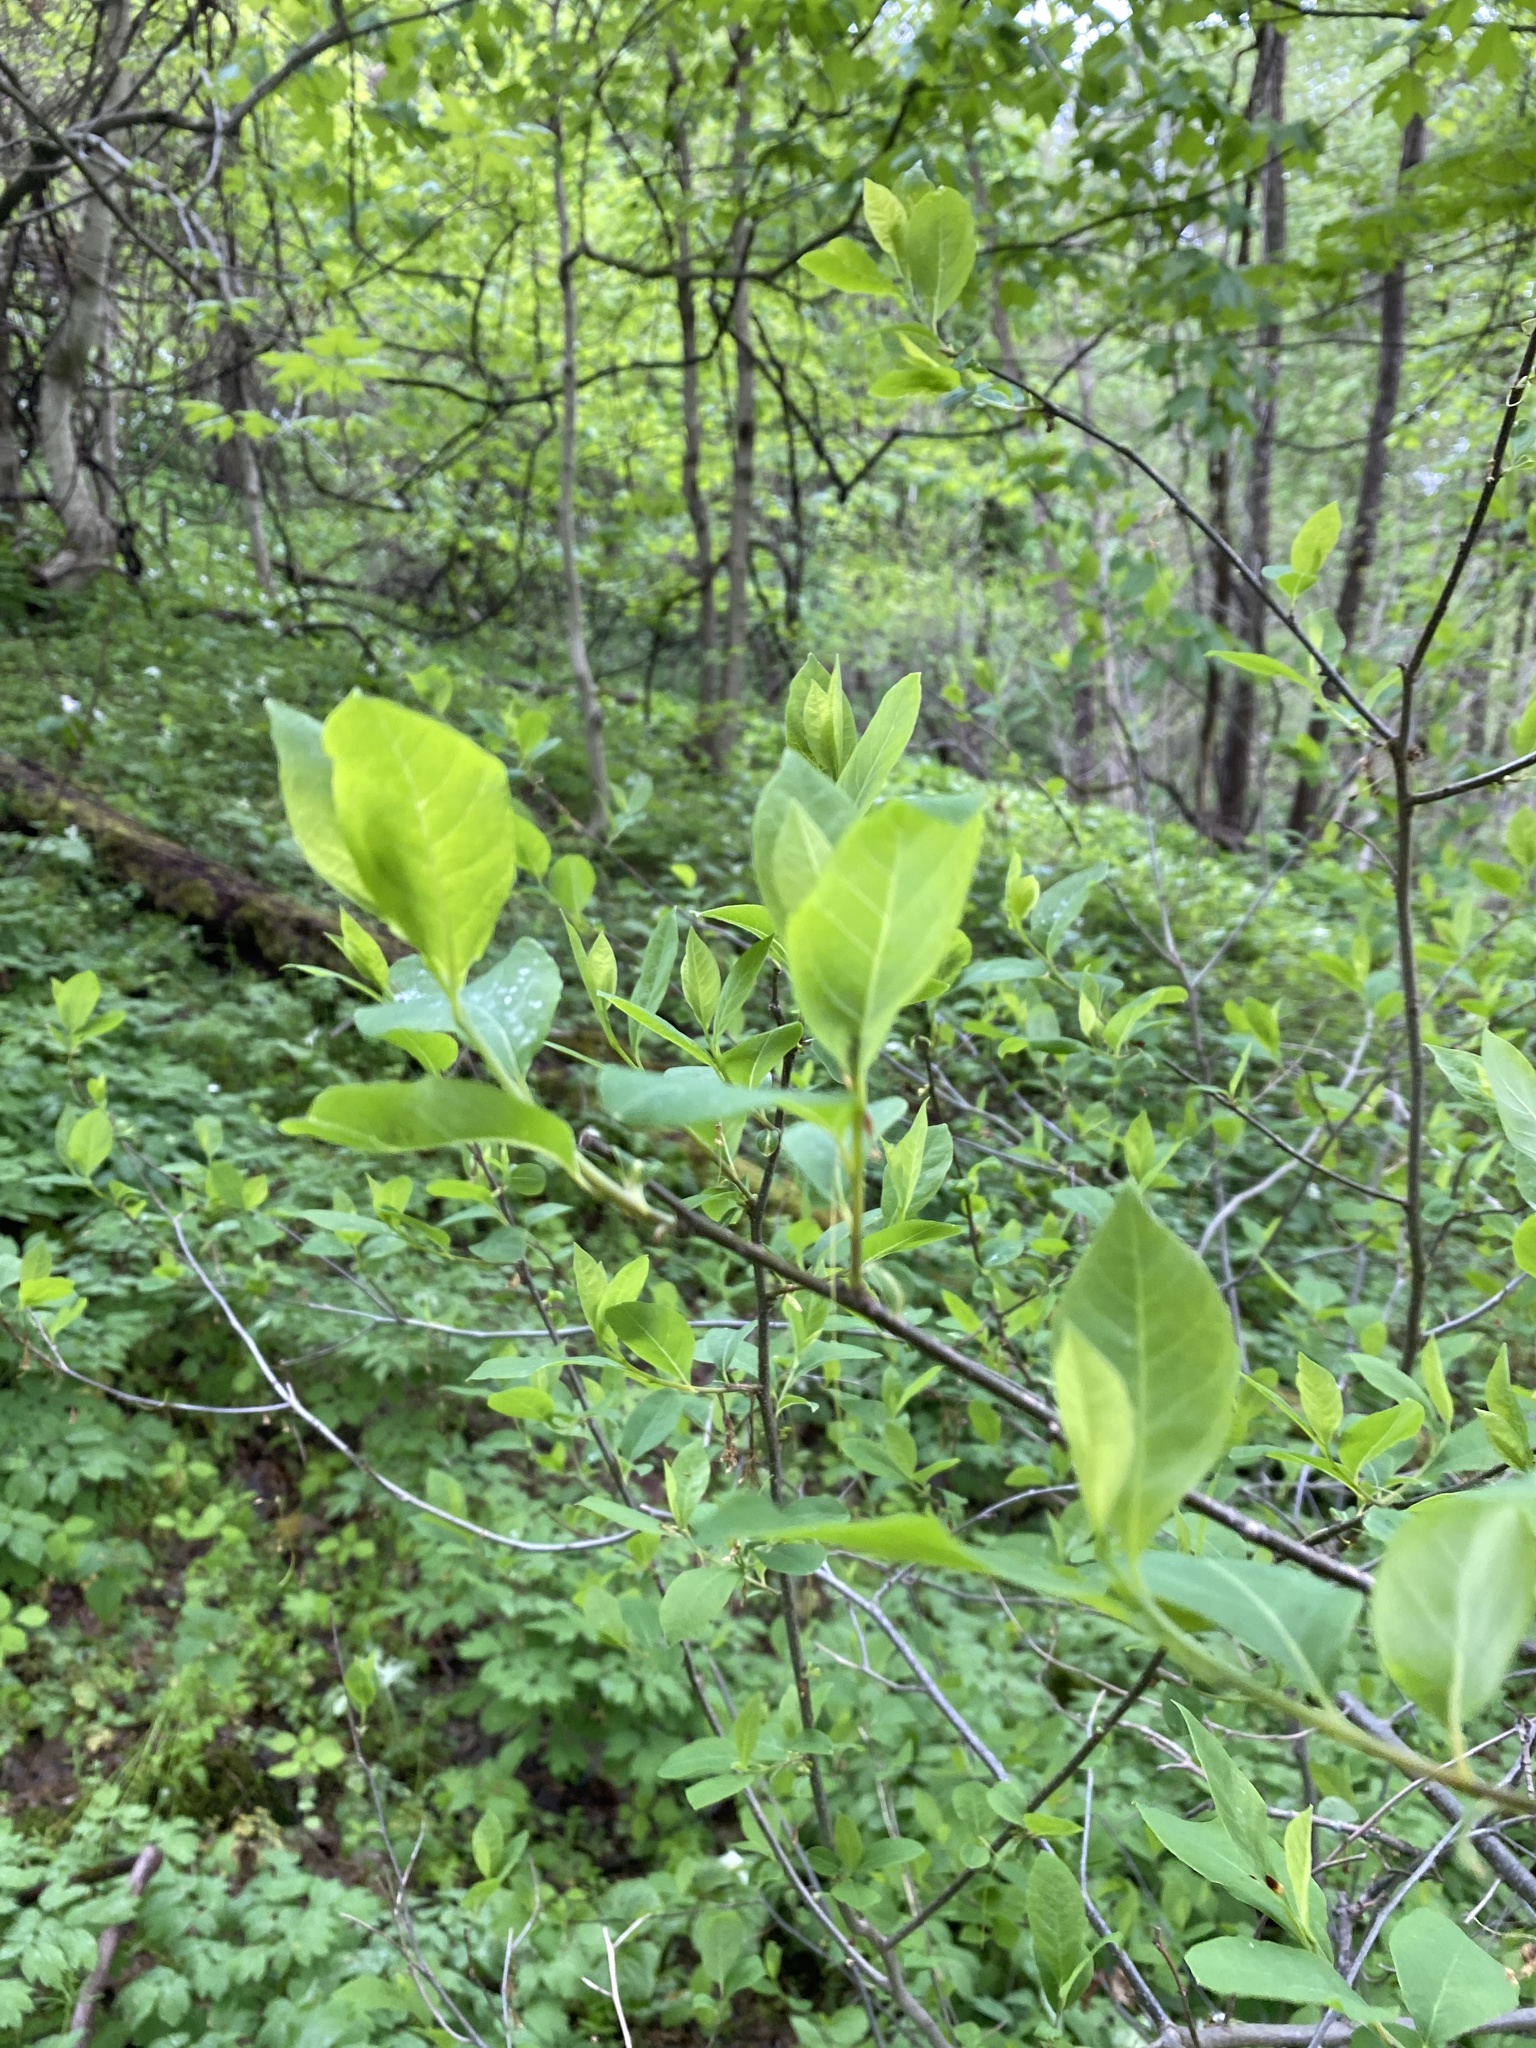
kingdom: Plantae
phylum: Tracheophyta
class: Magnoliopsida
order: Laurales
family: Lauraceae
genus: Lindera
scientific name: Lindera benzoin
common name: Spicebush
